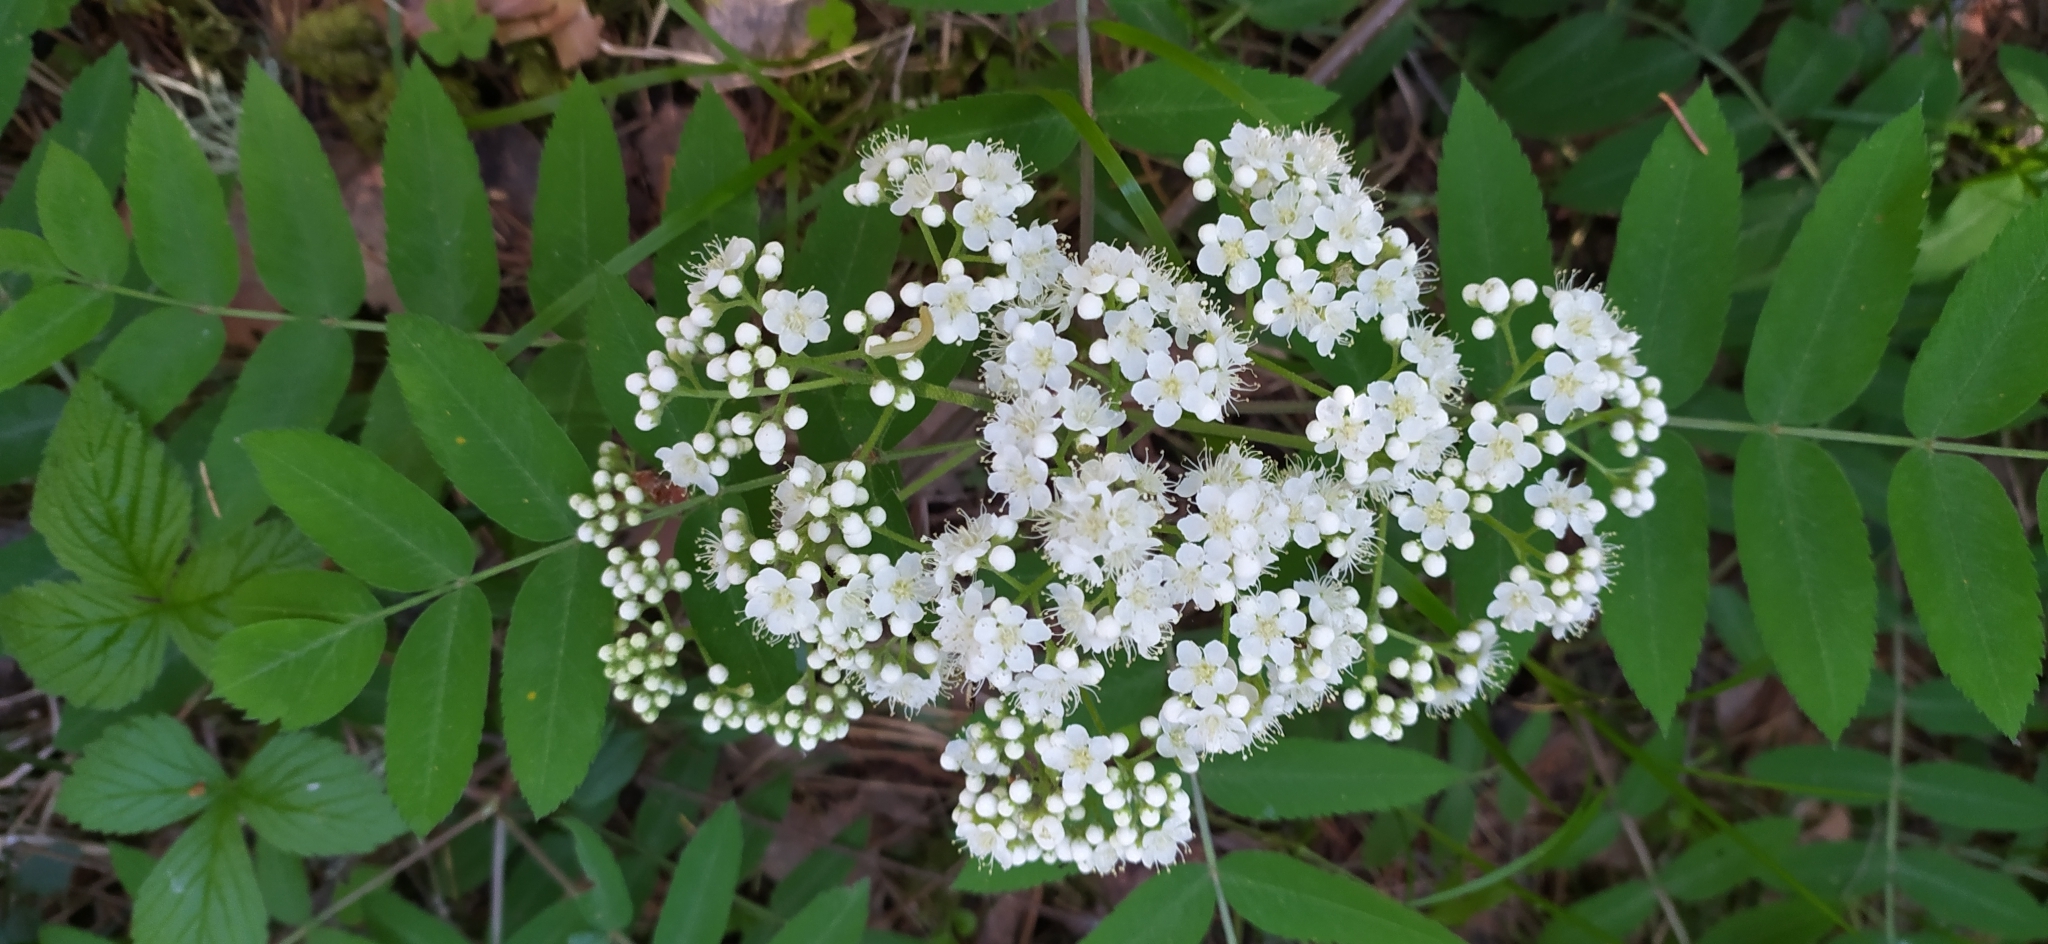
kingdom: Plantae
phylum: Tracheophyta
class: Magnoliopsida
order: Rosales
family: Rosaceae
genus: Sorbus
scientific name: Sorbus aucuparia
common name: Rowan
